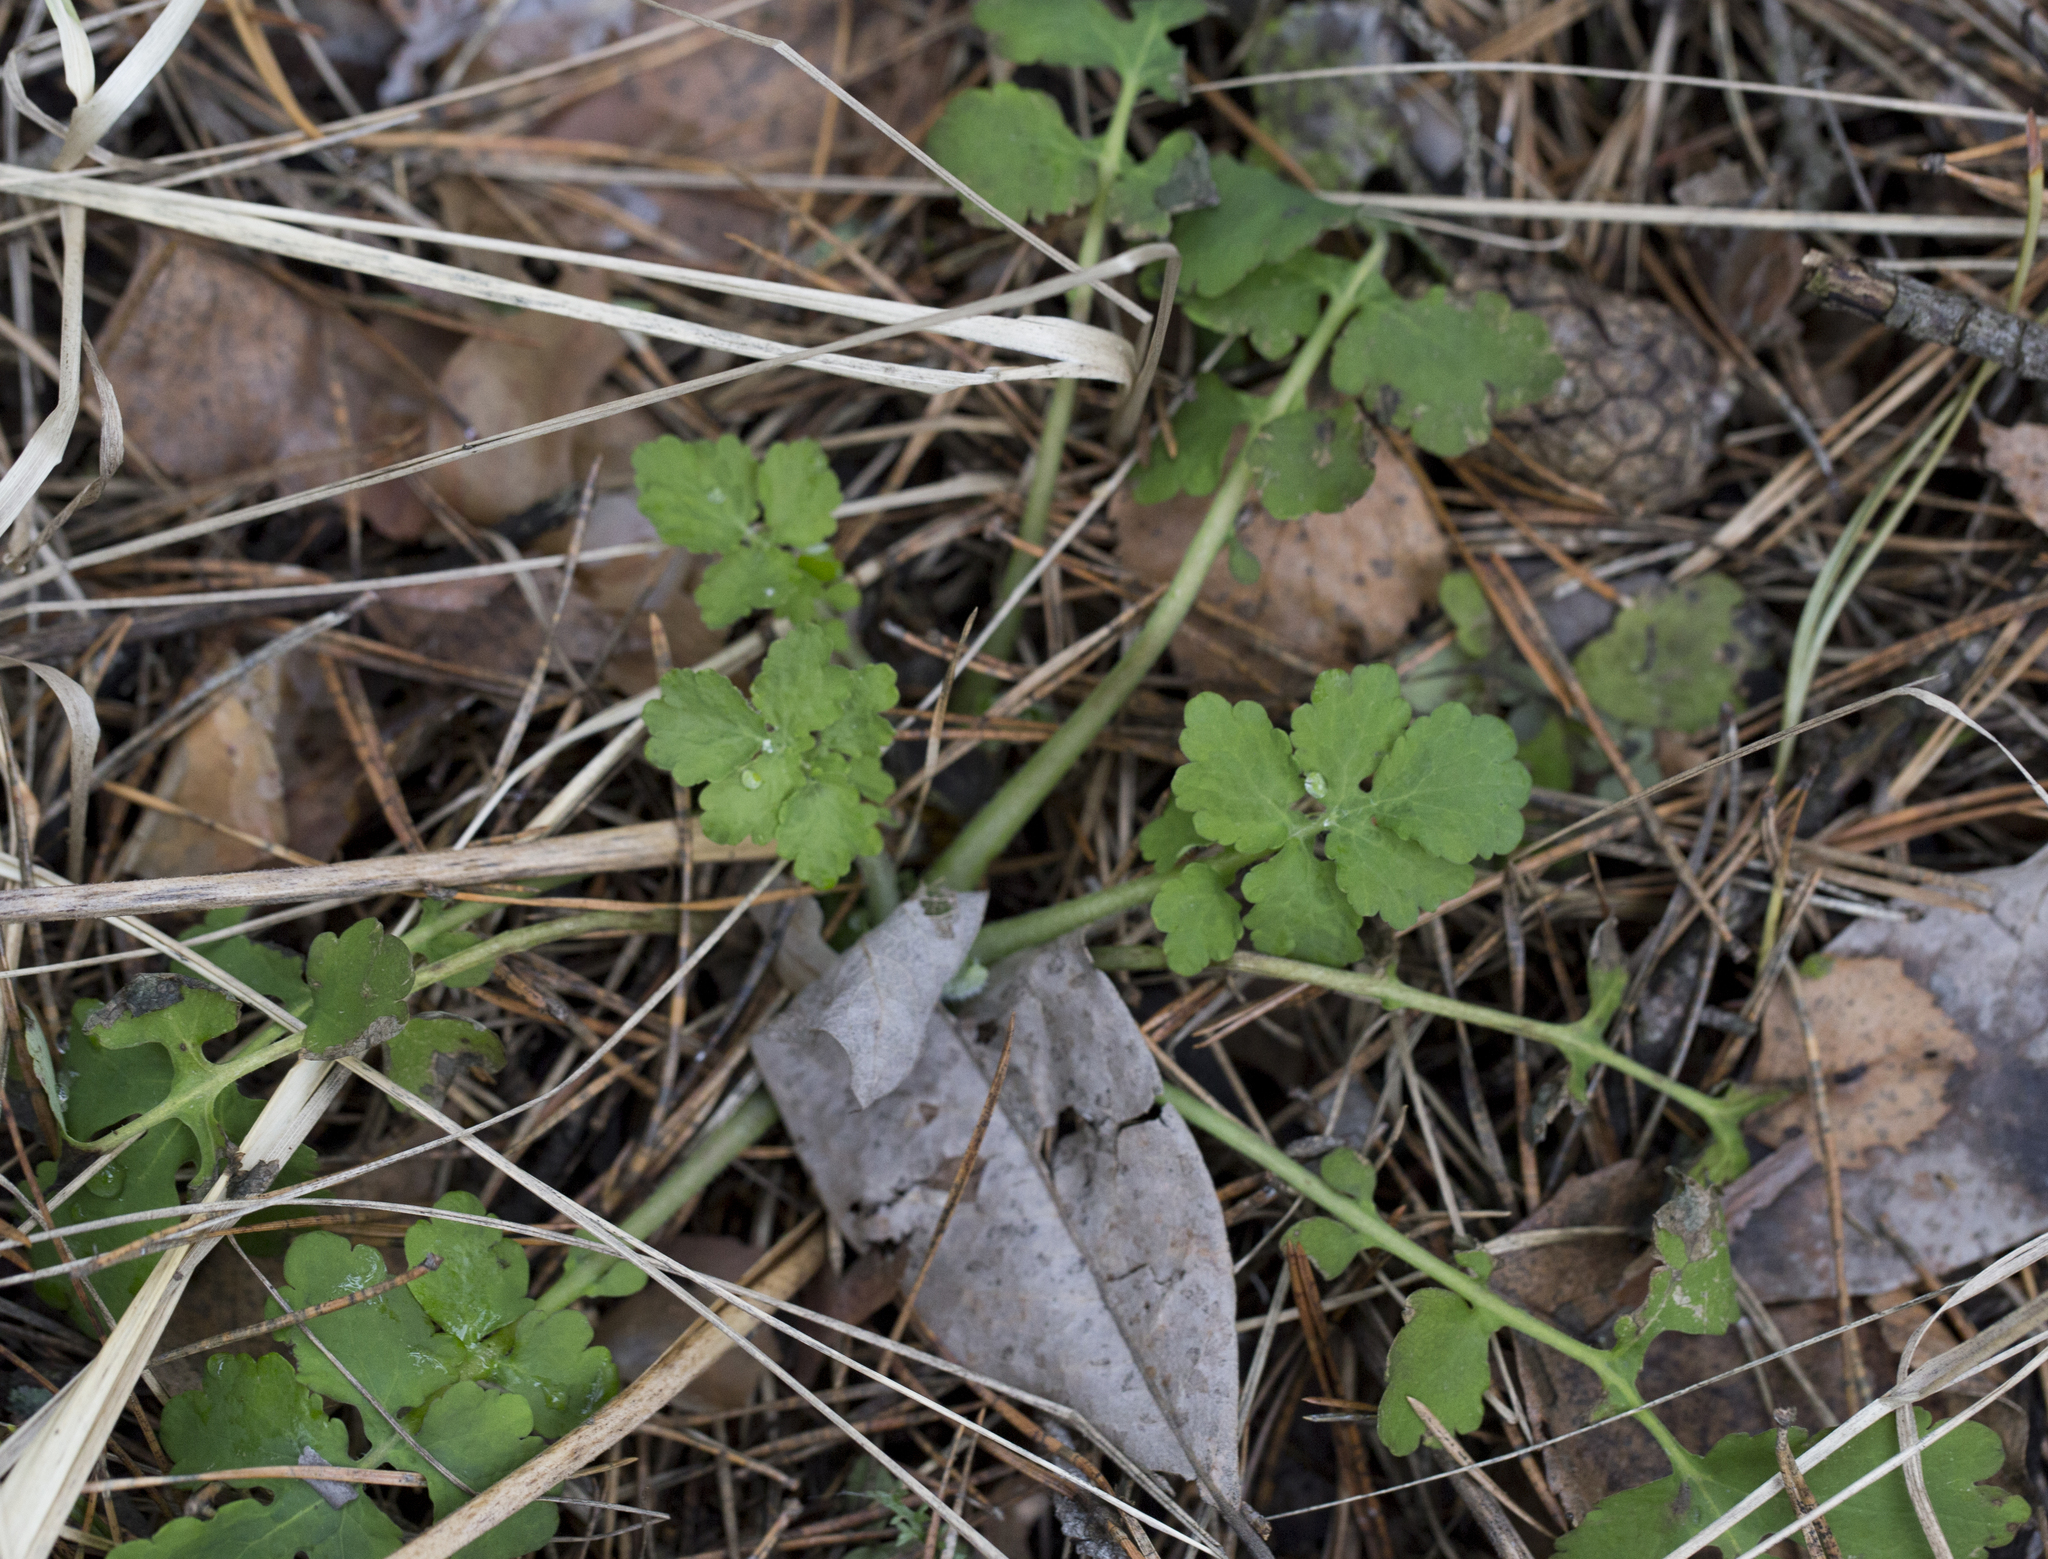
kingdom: Plantae
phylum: Tracheophyta
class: Magnoliopsida
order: Ranunculales
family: Papaveraceae
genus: Chelidonium
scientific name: Chelidonium majus
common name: Greater celandine
